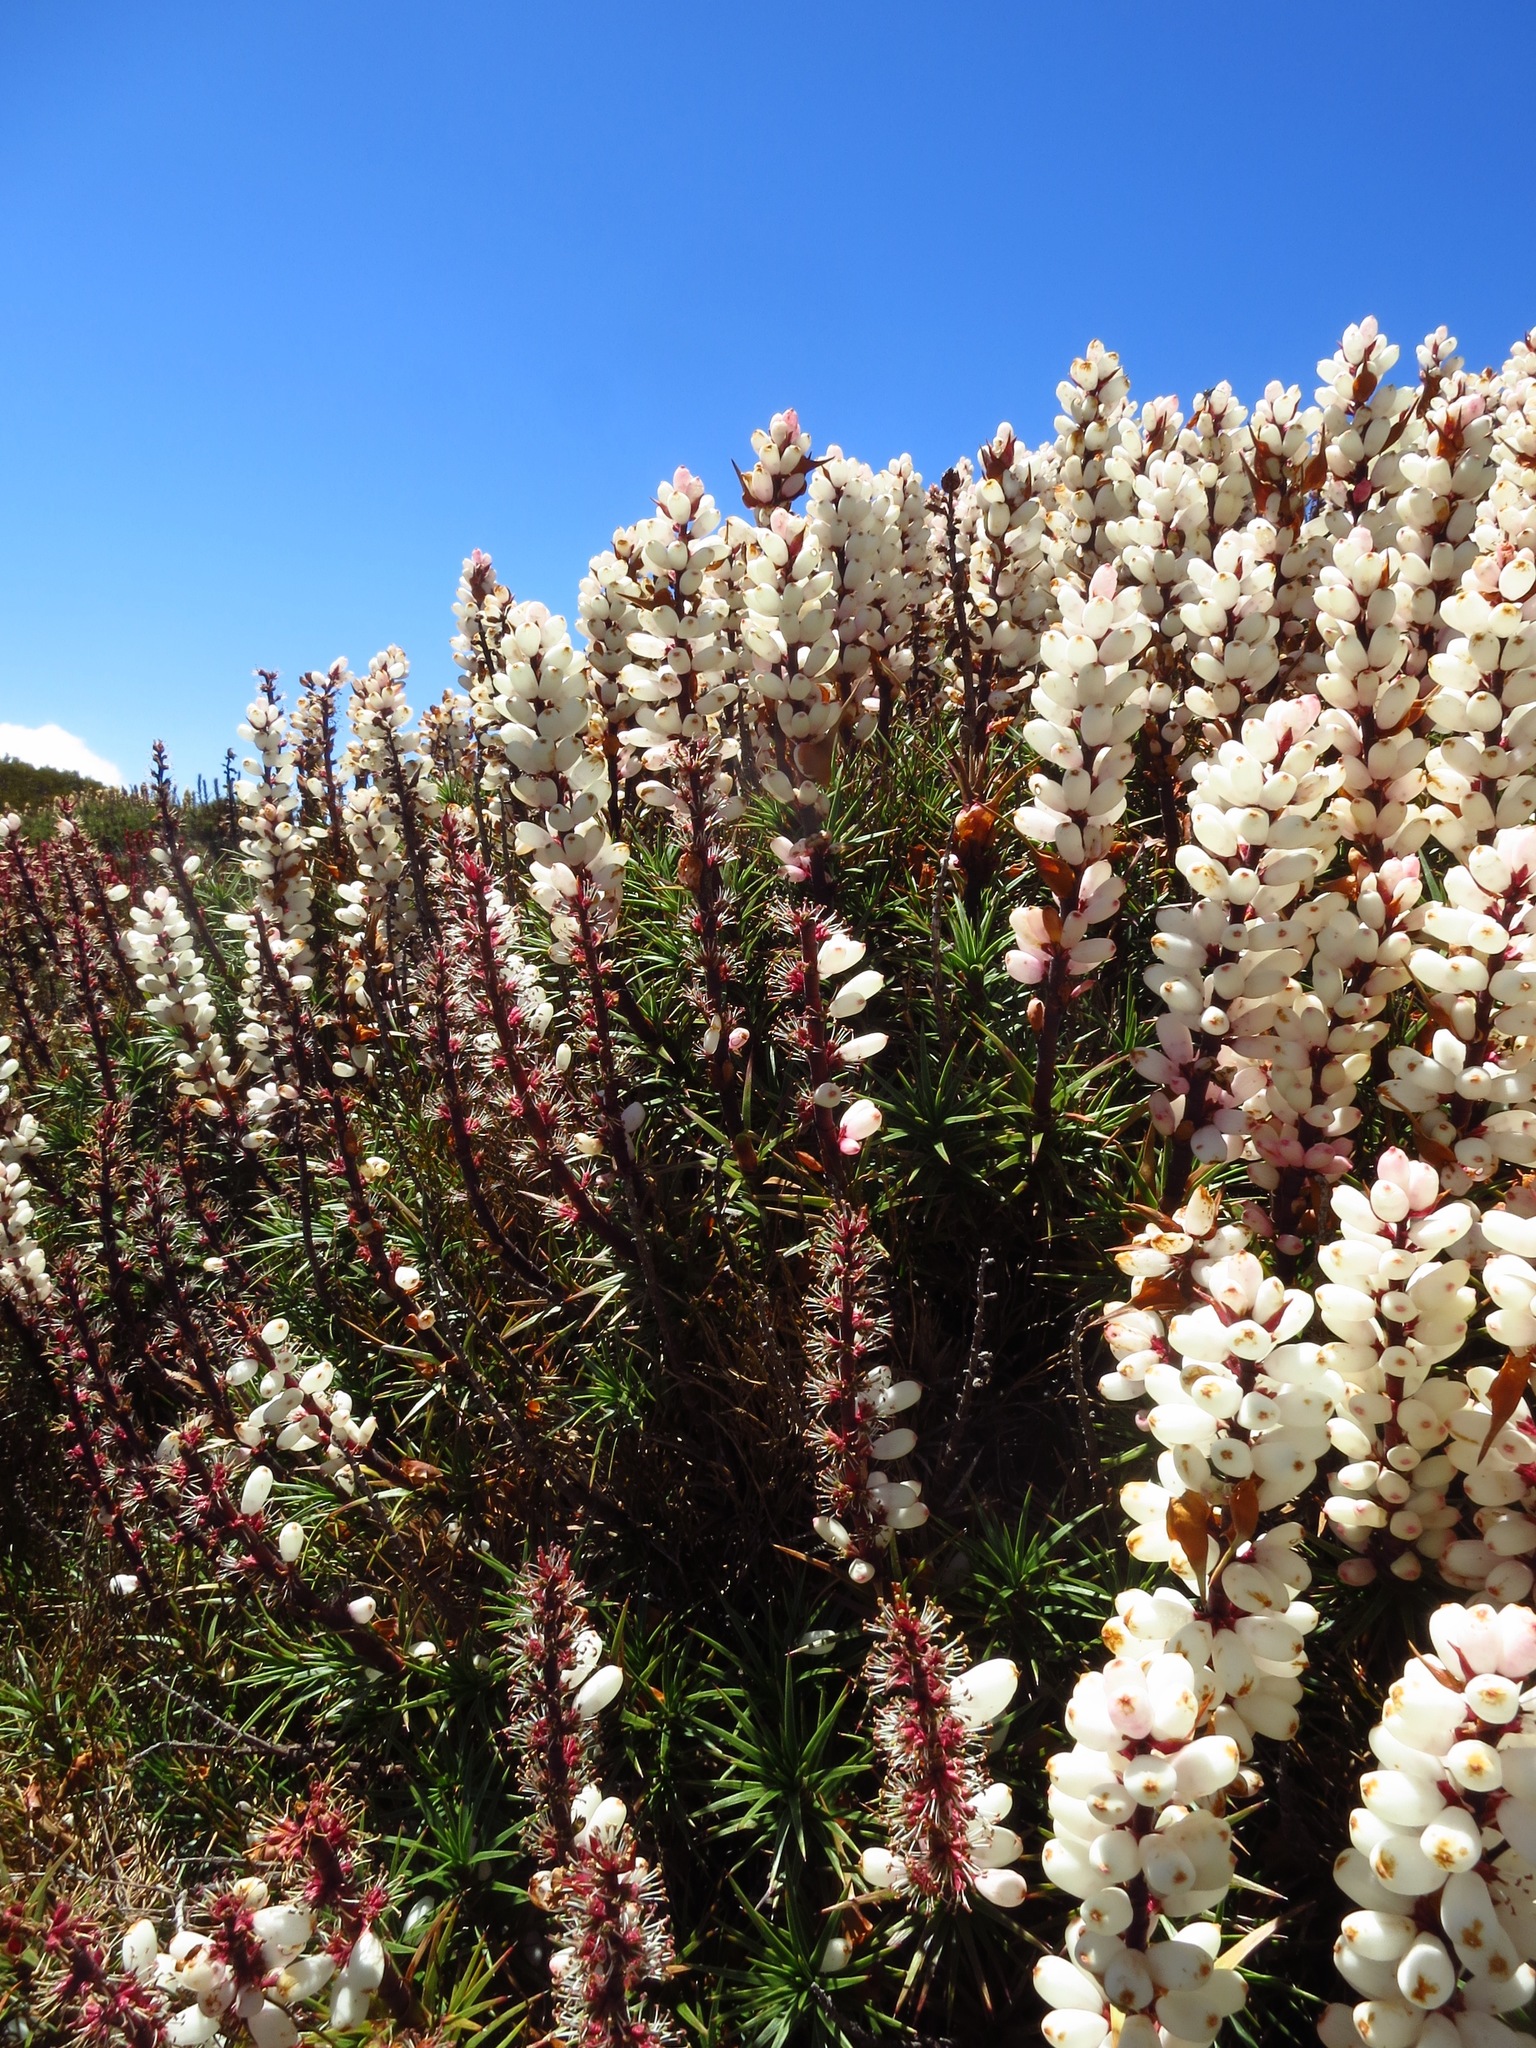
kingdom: Plantae
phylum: Tracheophyta
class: Magnoliopsida
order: Ericales
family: Ericaceae
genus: Dracophyllum
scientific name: Dracophyllum persistentifolium
